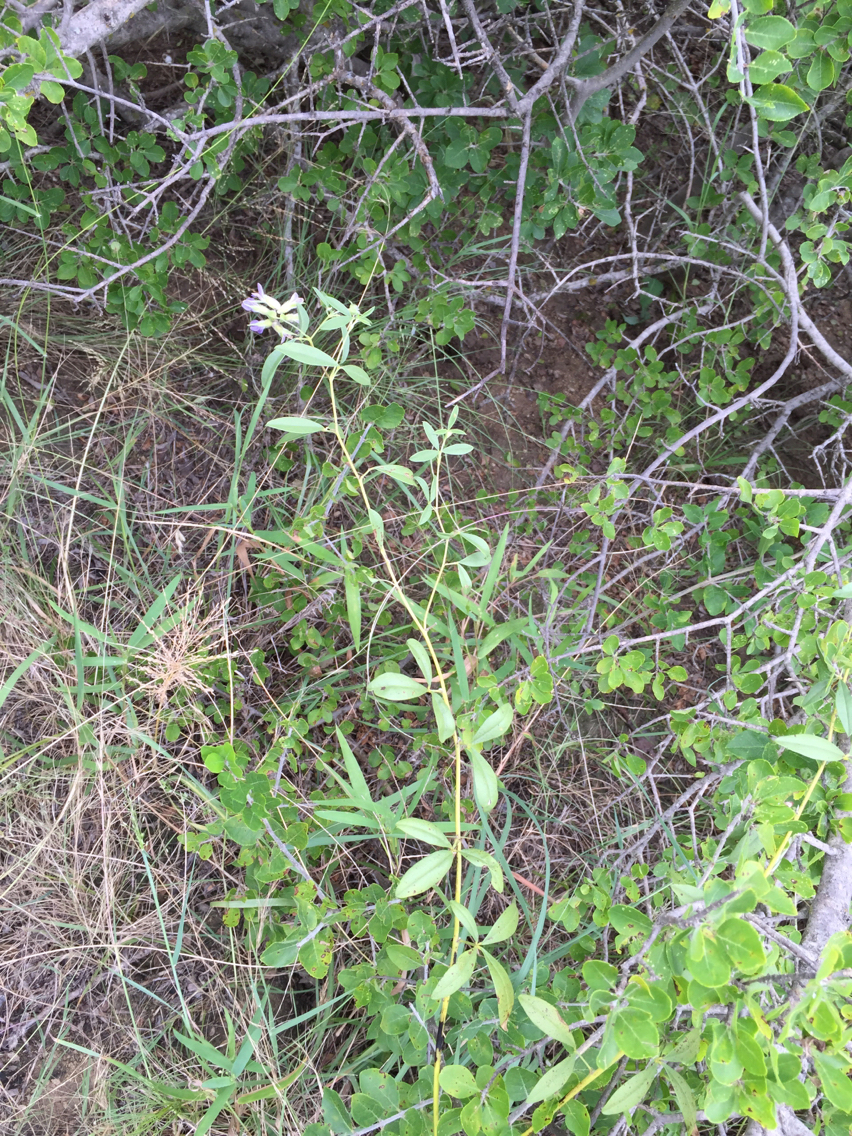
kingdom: Plantae
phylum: Tracheophyta
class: Magnoliopsida
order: Fabales
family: Fabaceae
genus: Pediomelum
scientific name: Pediomelum reverchonii
